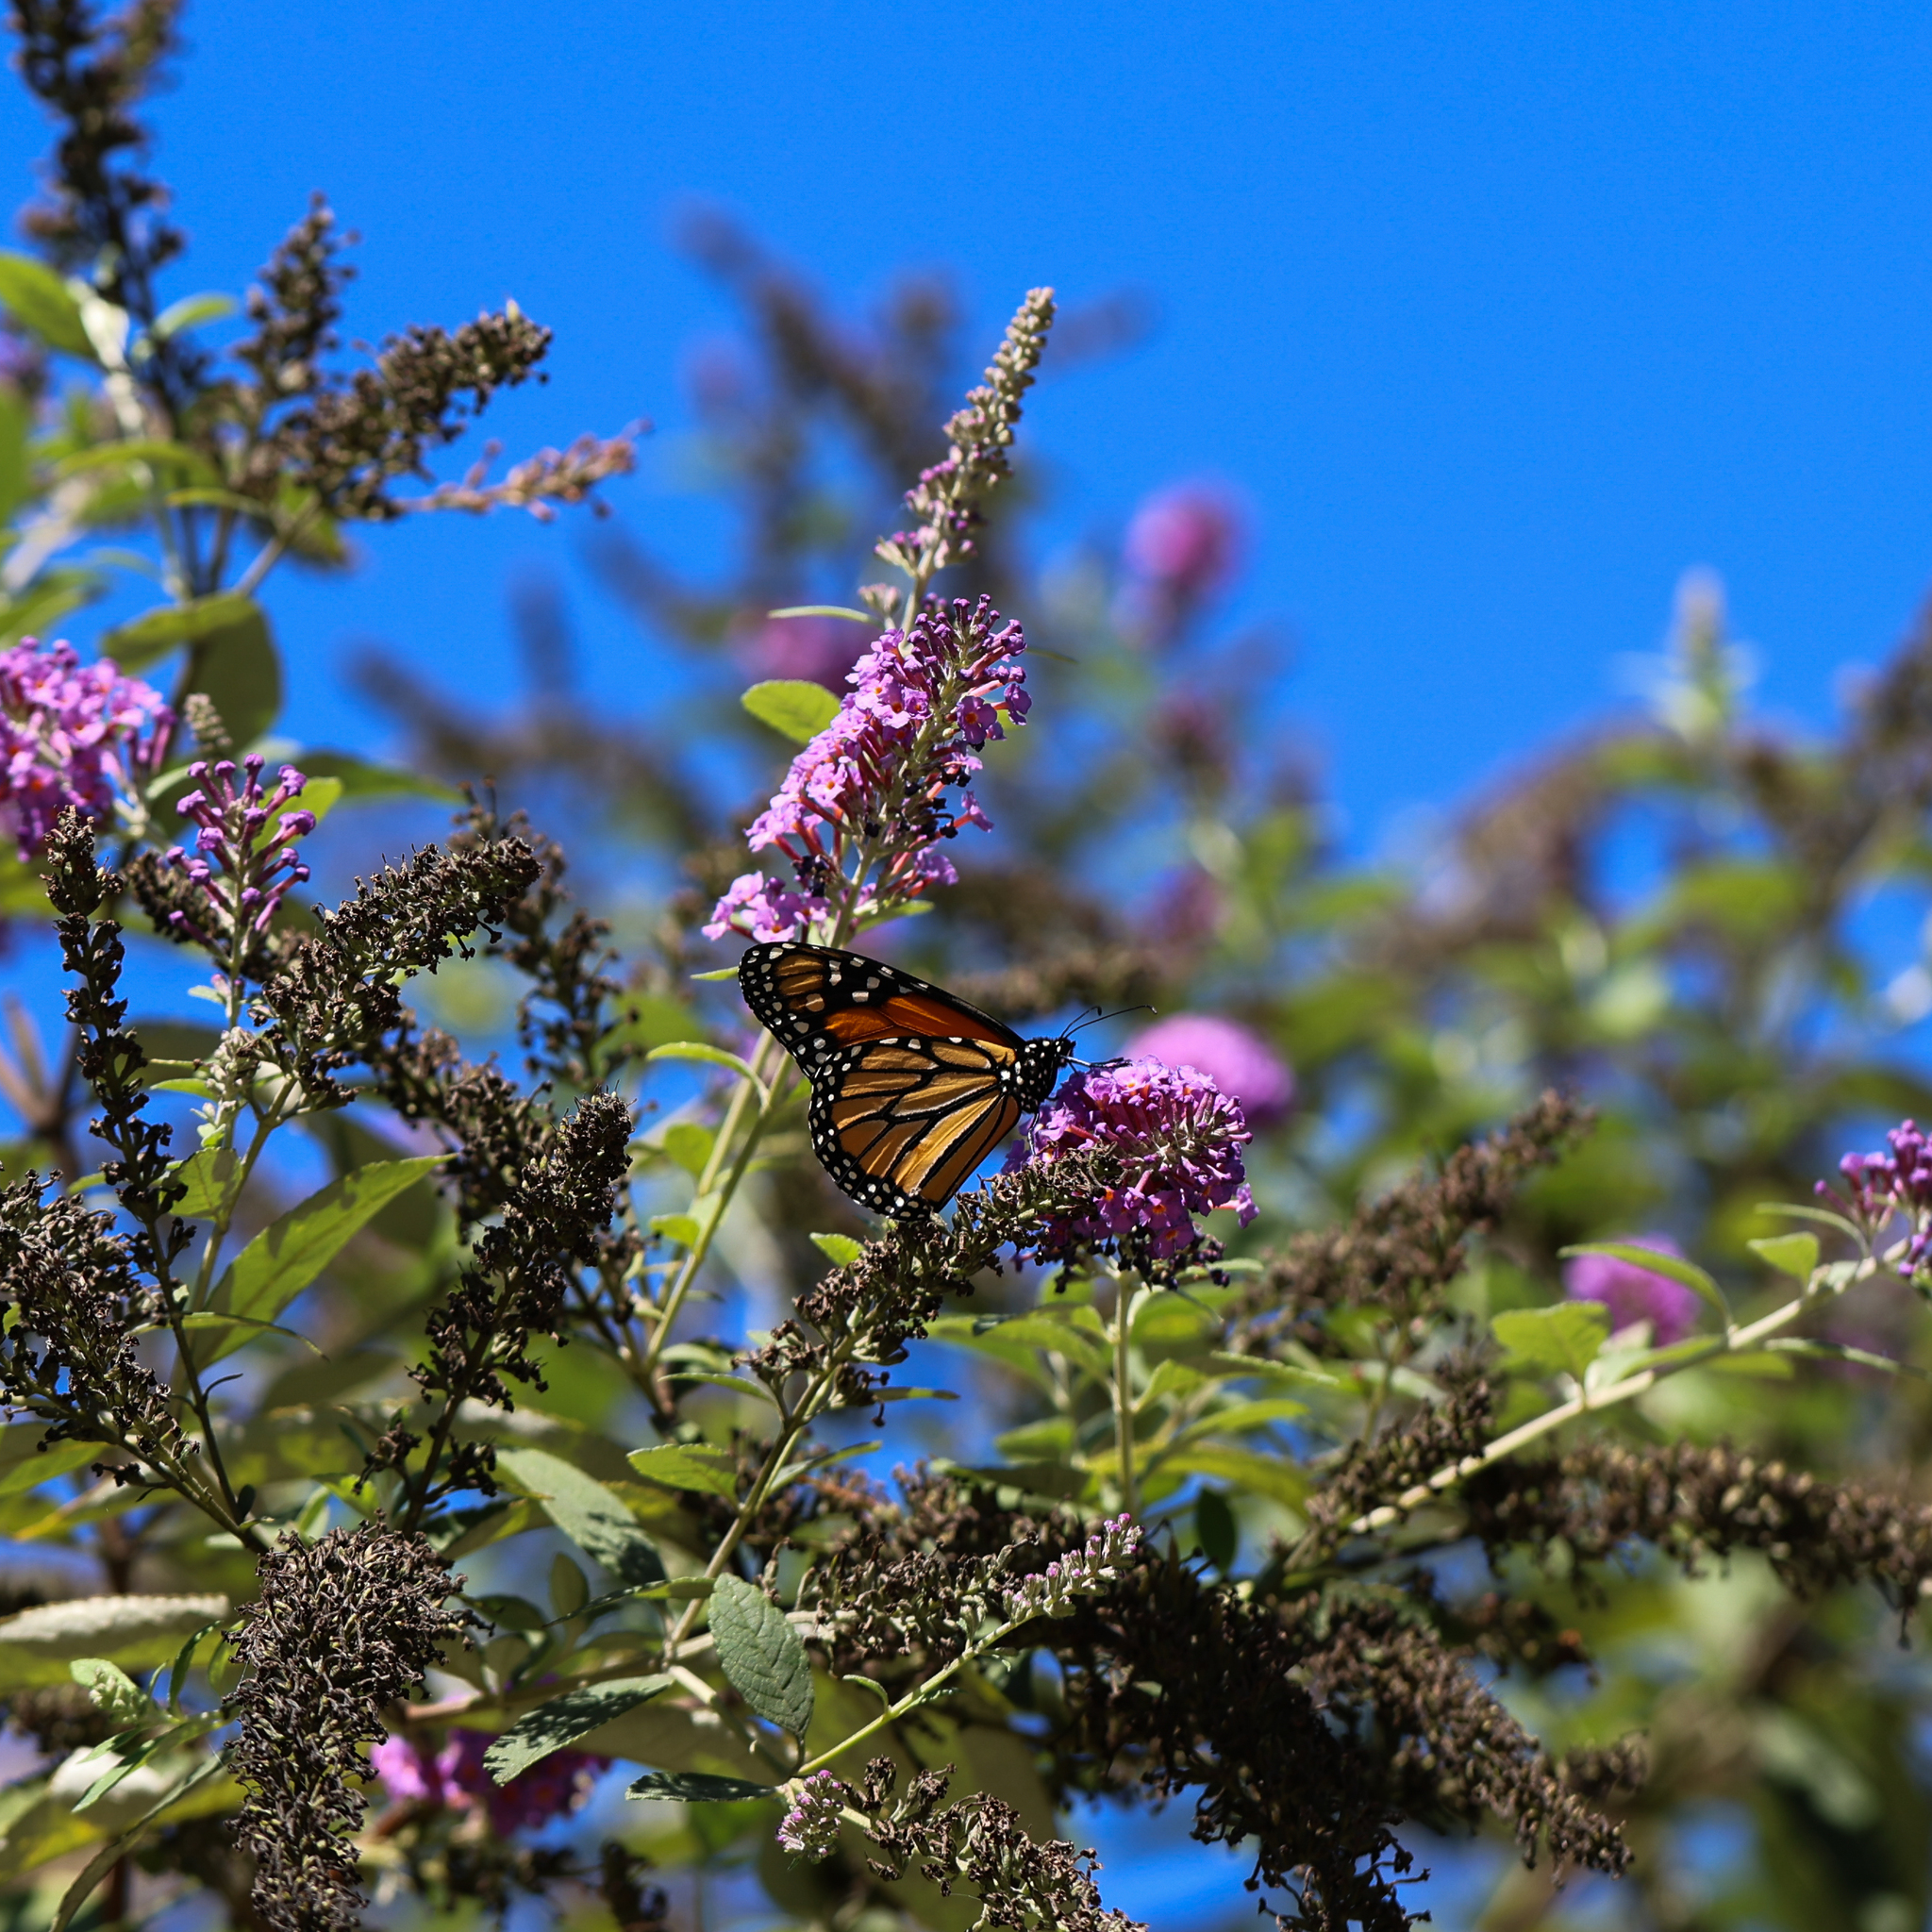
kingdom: Animalia
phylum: Arthropoda
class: Insecta
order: Lepidoptera
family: Nymphalidae
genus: Danaus
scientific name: Danaus plexippus
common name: Monarch
